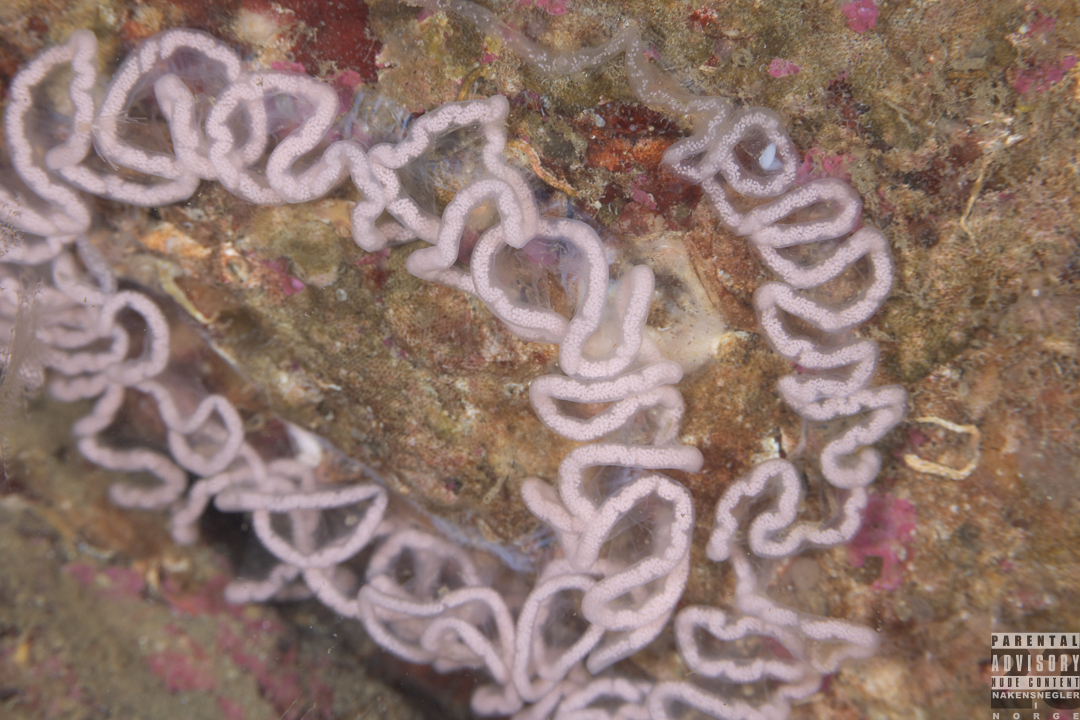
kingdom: Animalia
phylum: Mollusca
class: Gastropoda
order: Nudibranchia
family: Tritoniidae
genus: Tritonia
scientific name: Tritonia hombergii
